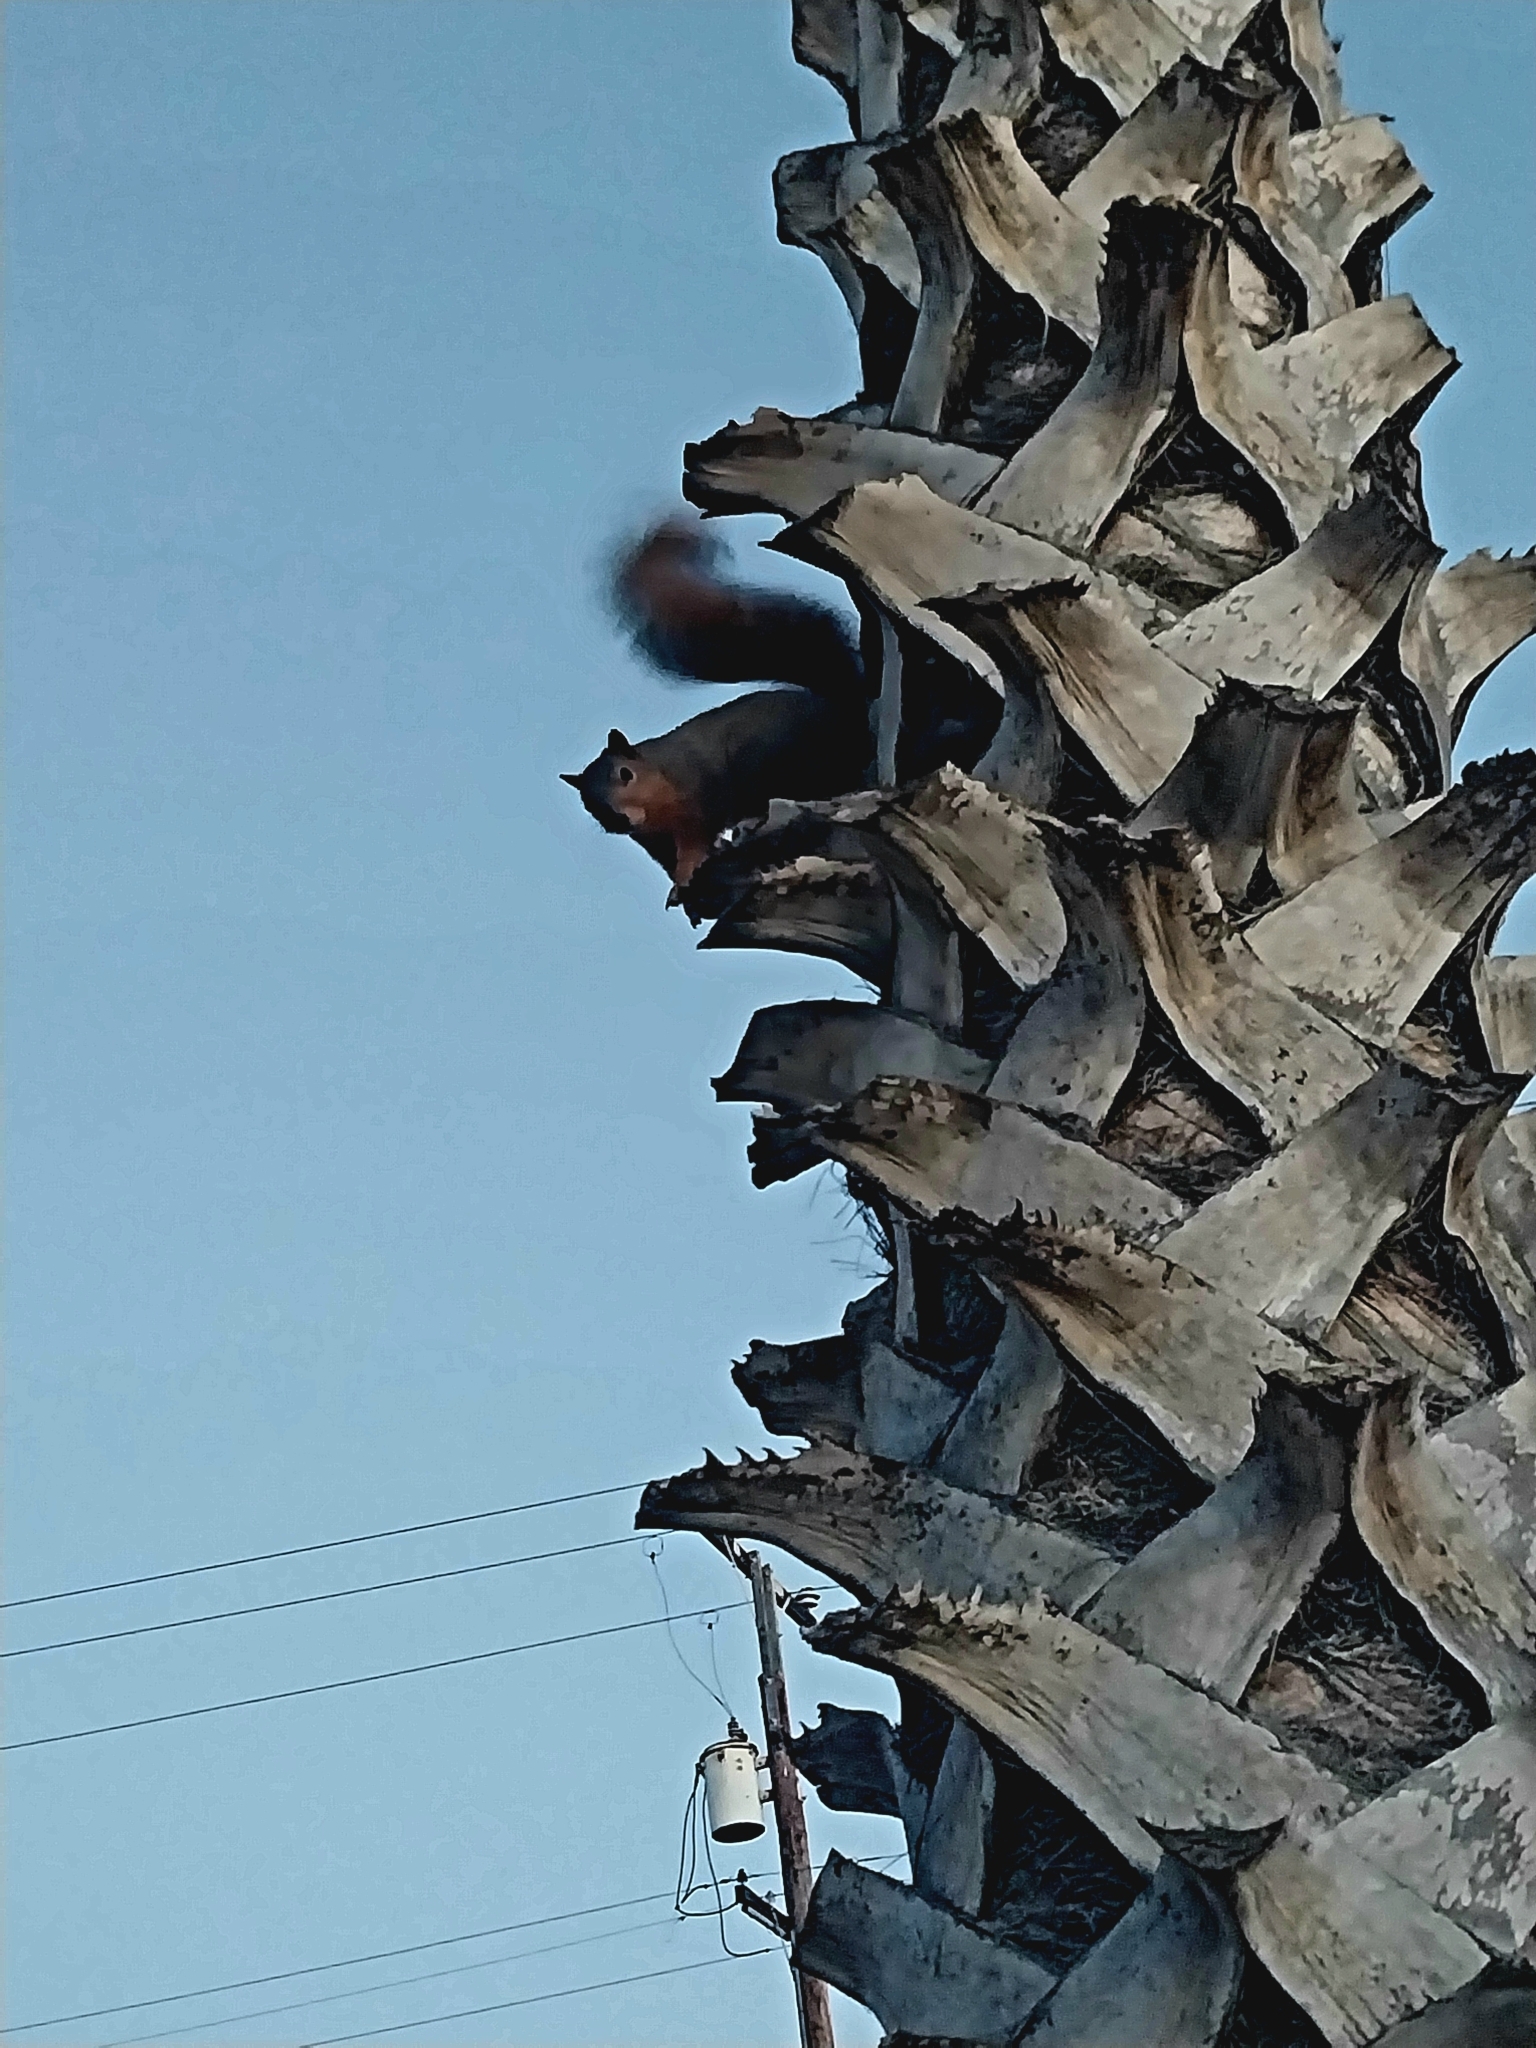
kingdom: Animalia
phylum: Chordata
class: Mammalia
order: Rodentia
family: Sciuridae
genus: Sciurus
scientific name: Sciurus niger
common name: Fox squirrel
